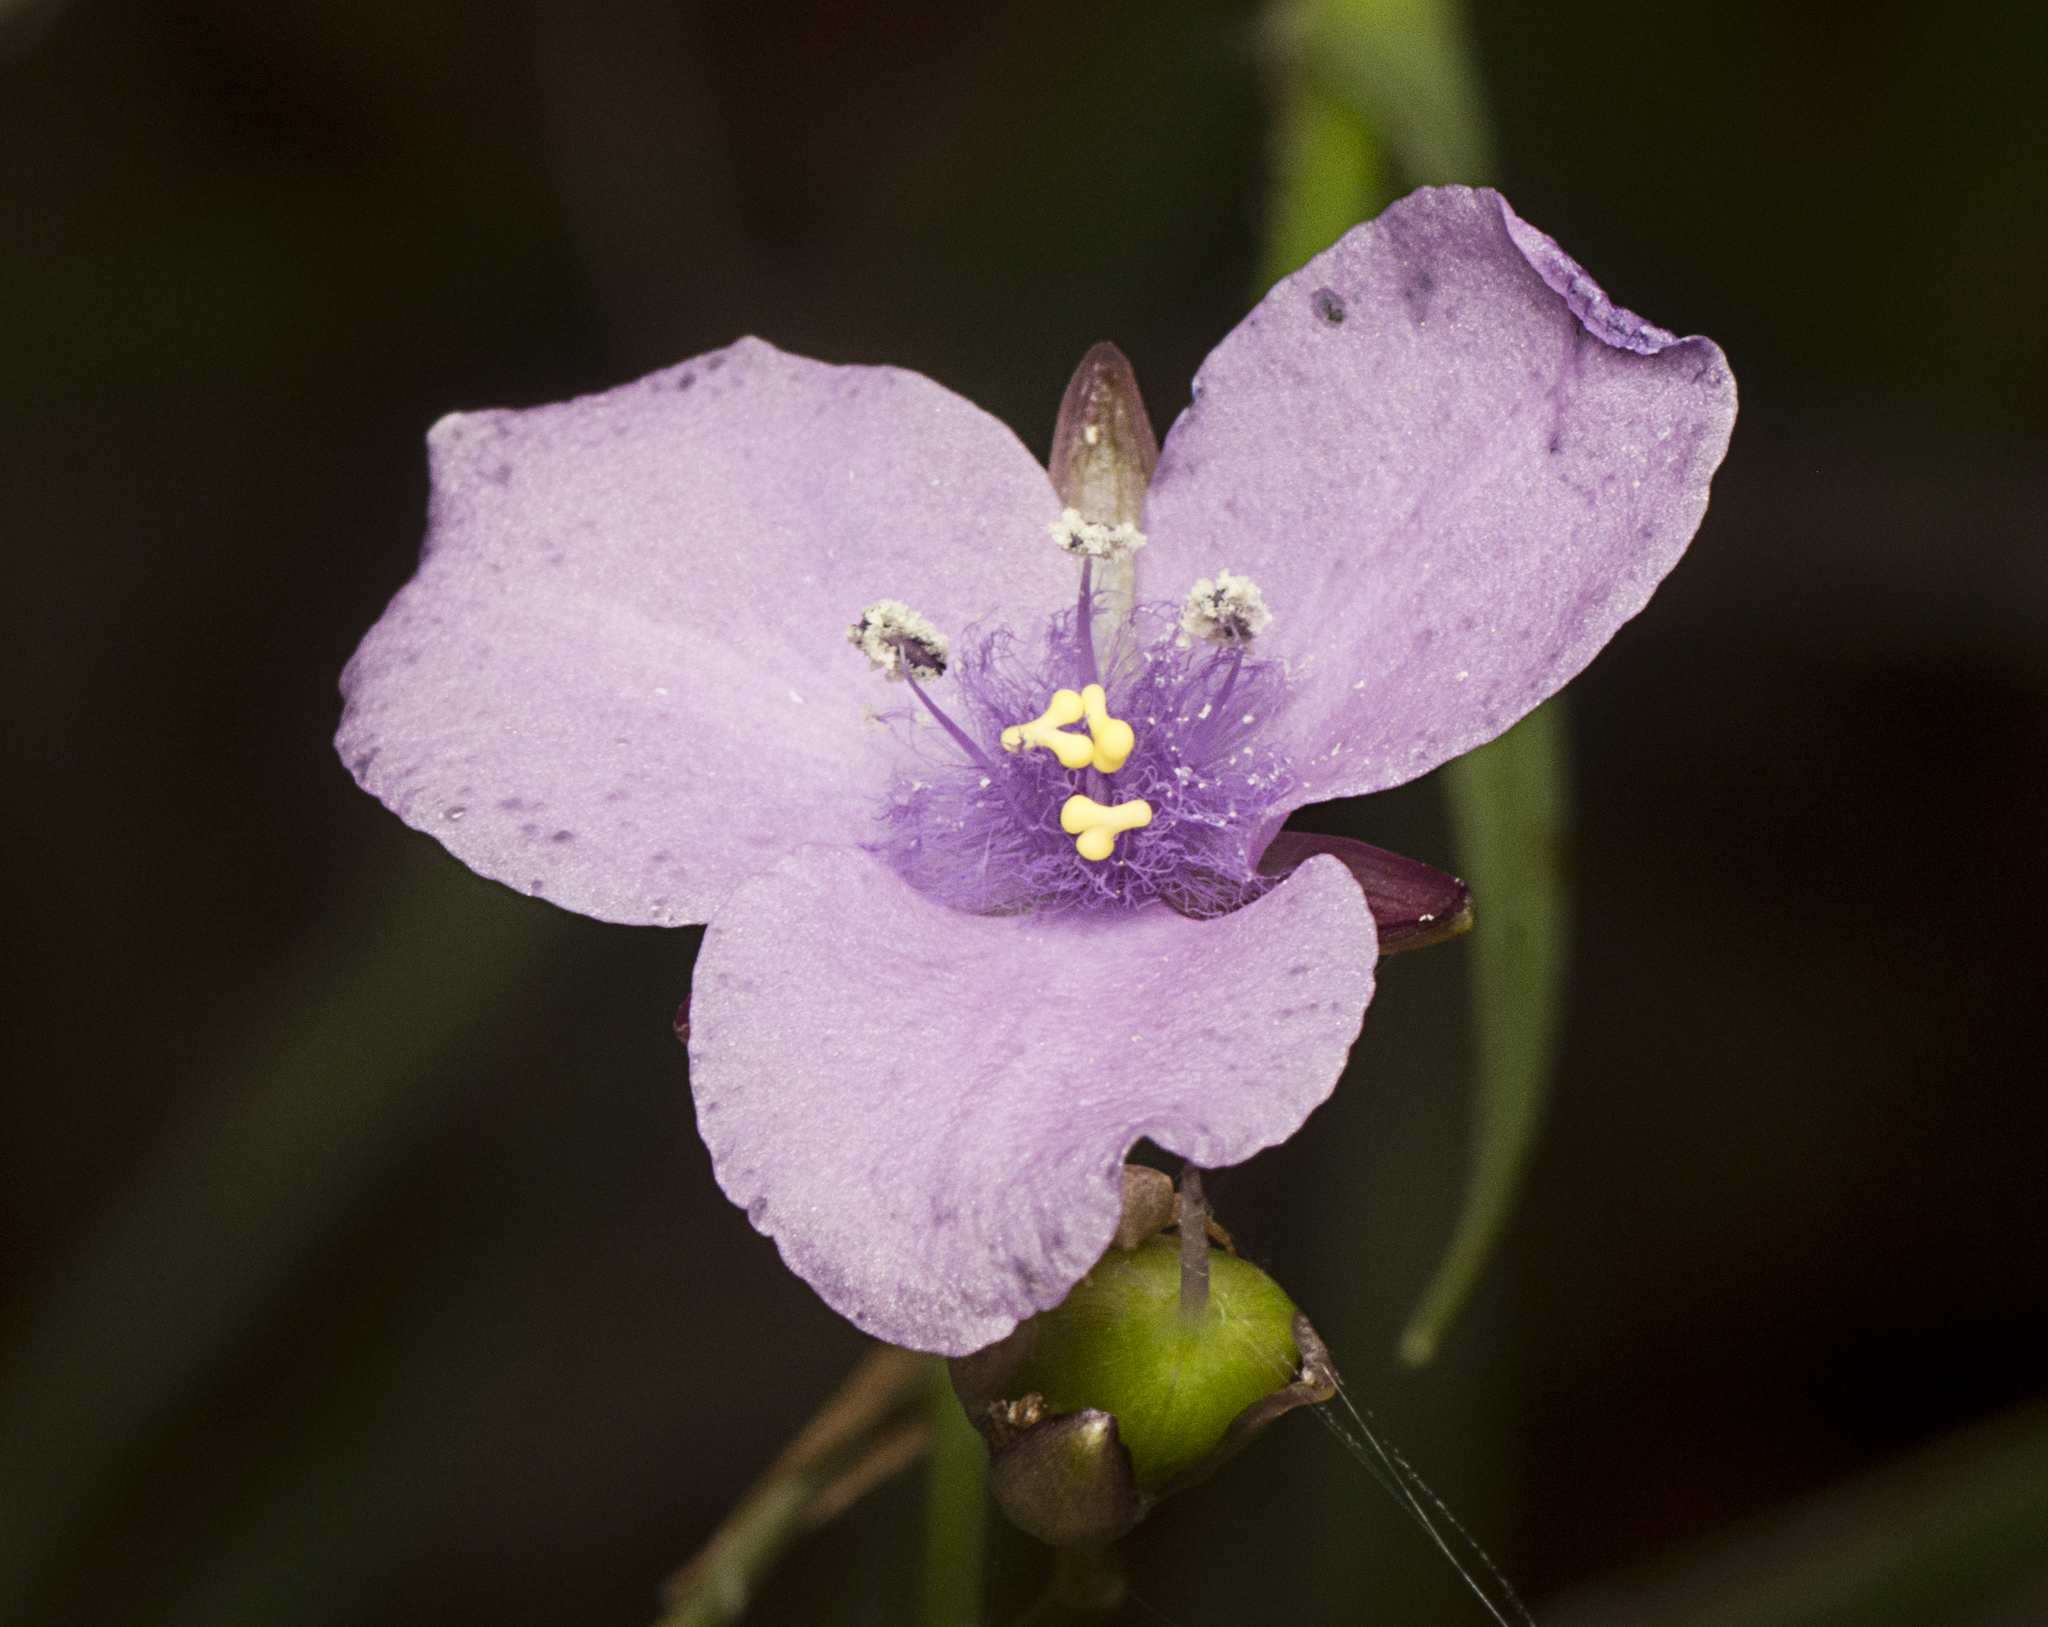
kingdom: Plantae
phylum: Tracheophyta
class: Liliopsida
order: Commelinales
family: Commelinaceae
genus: Murdannia
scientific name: Murdannia graminea
